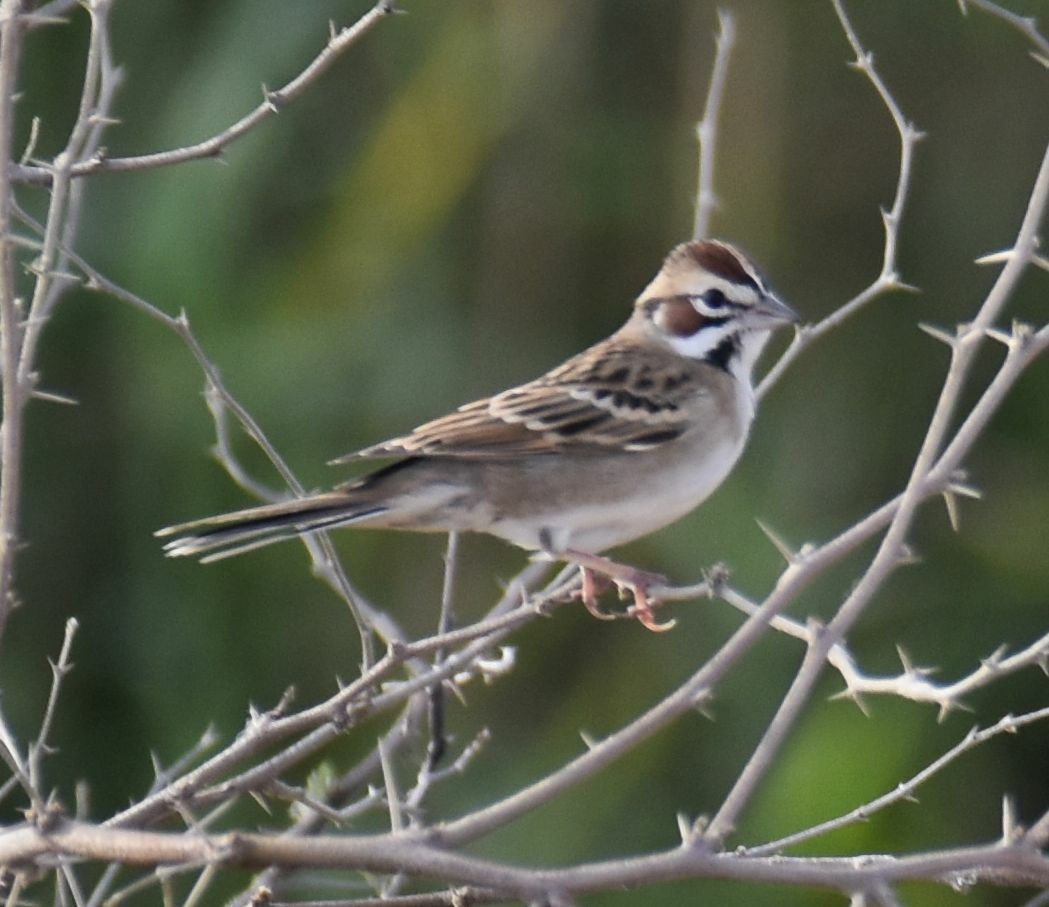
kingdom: Animalia
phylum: Chordata
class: Aves
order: Passeriformes
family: Passerellidae
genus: Chondestes
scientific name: Chondestes grammacus
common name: Lark sparrow
